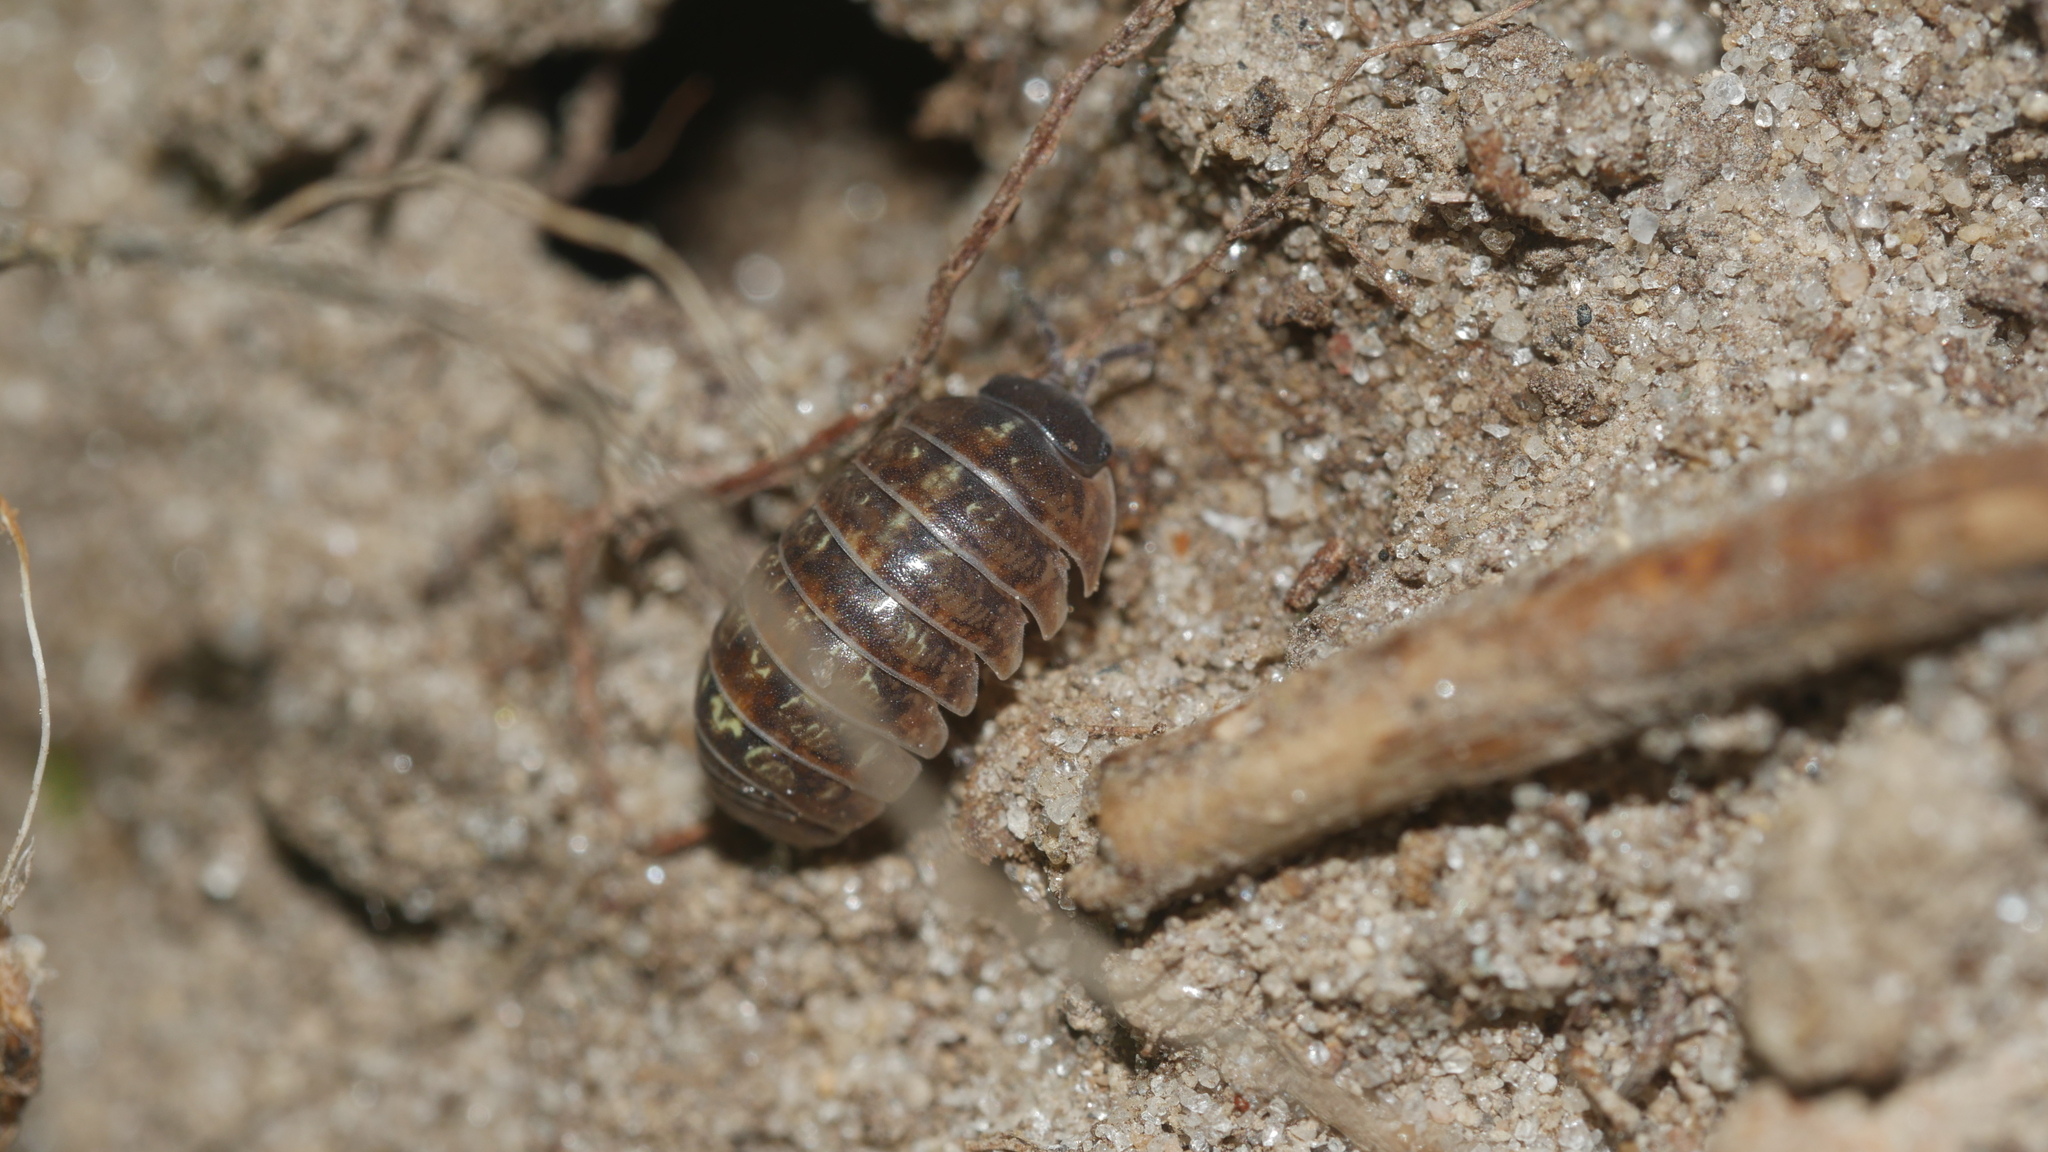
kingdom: Animalia
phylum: Arthropoda
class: Malacostraca
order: Isopoda
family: Armadillidiidae
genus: Armadillidium
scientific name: Armadillidium vulgare
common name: Common pill woodlouse
